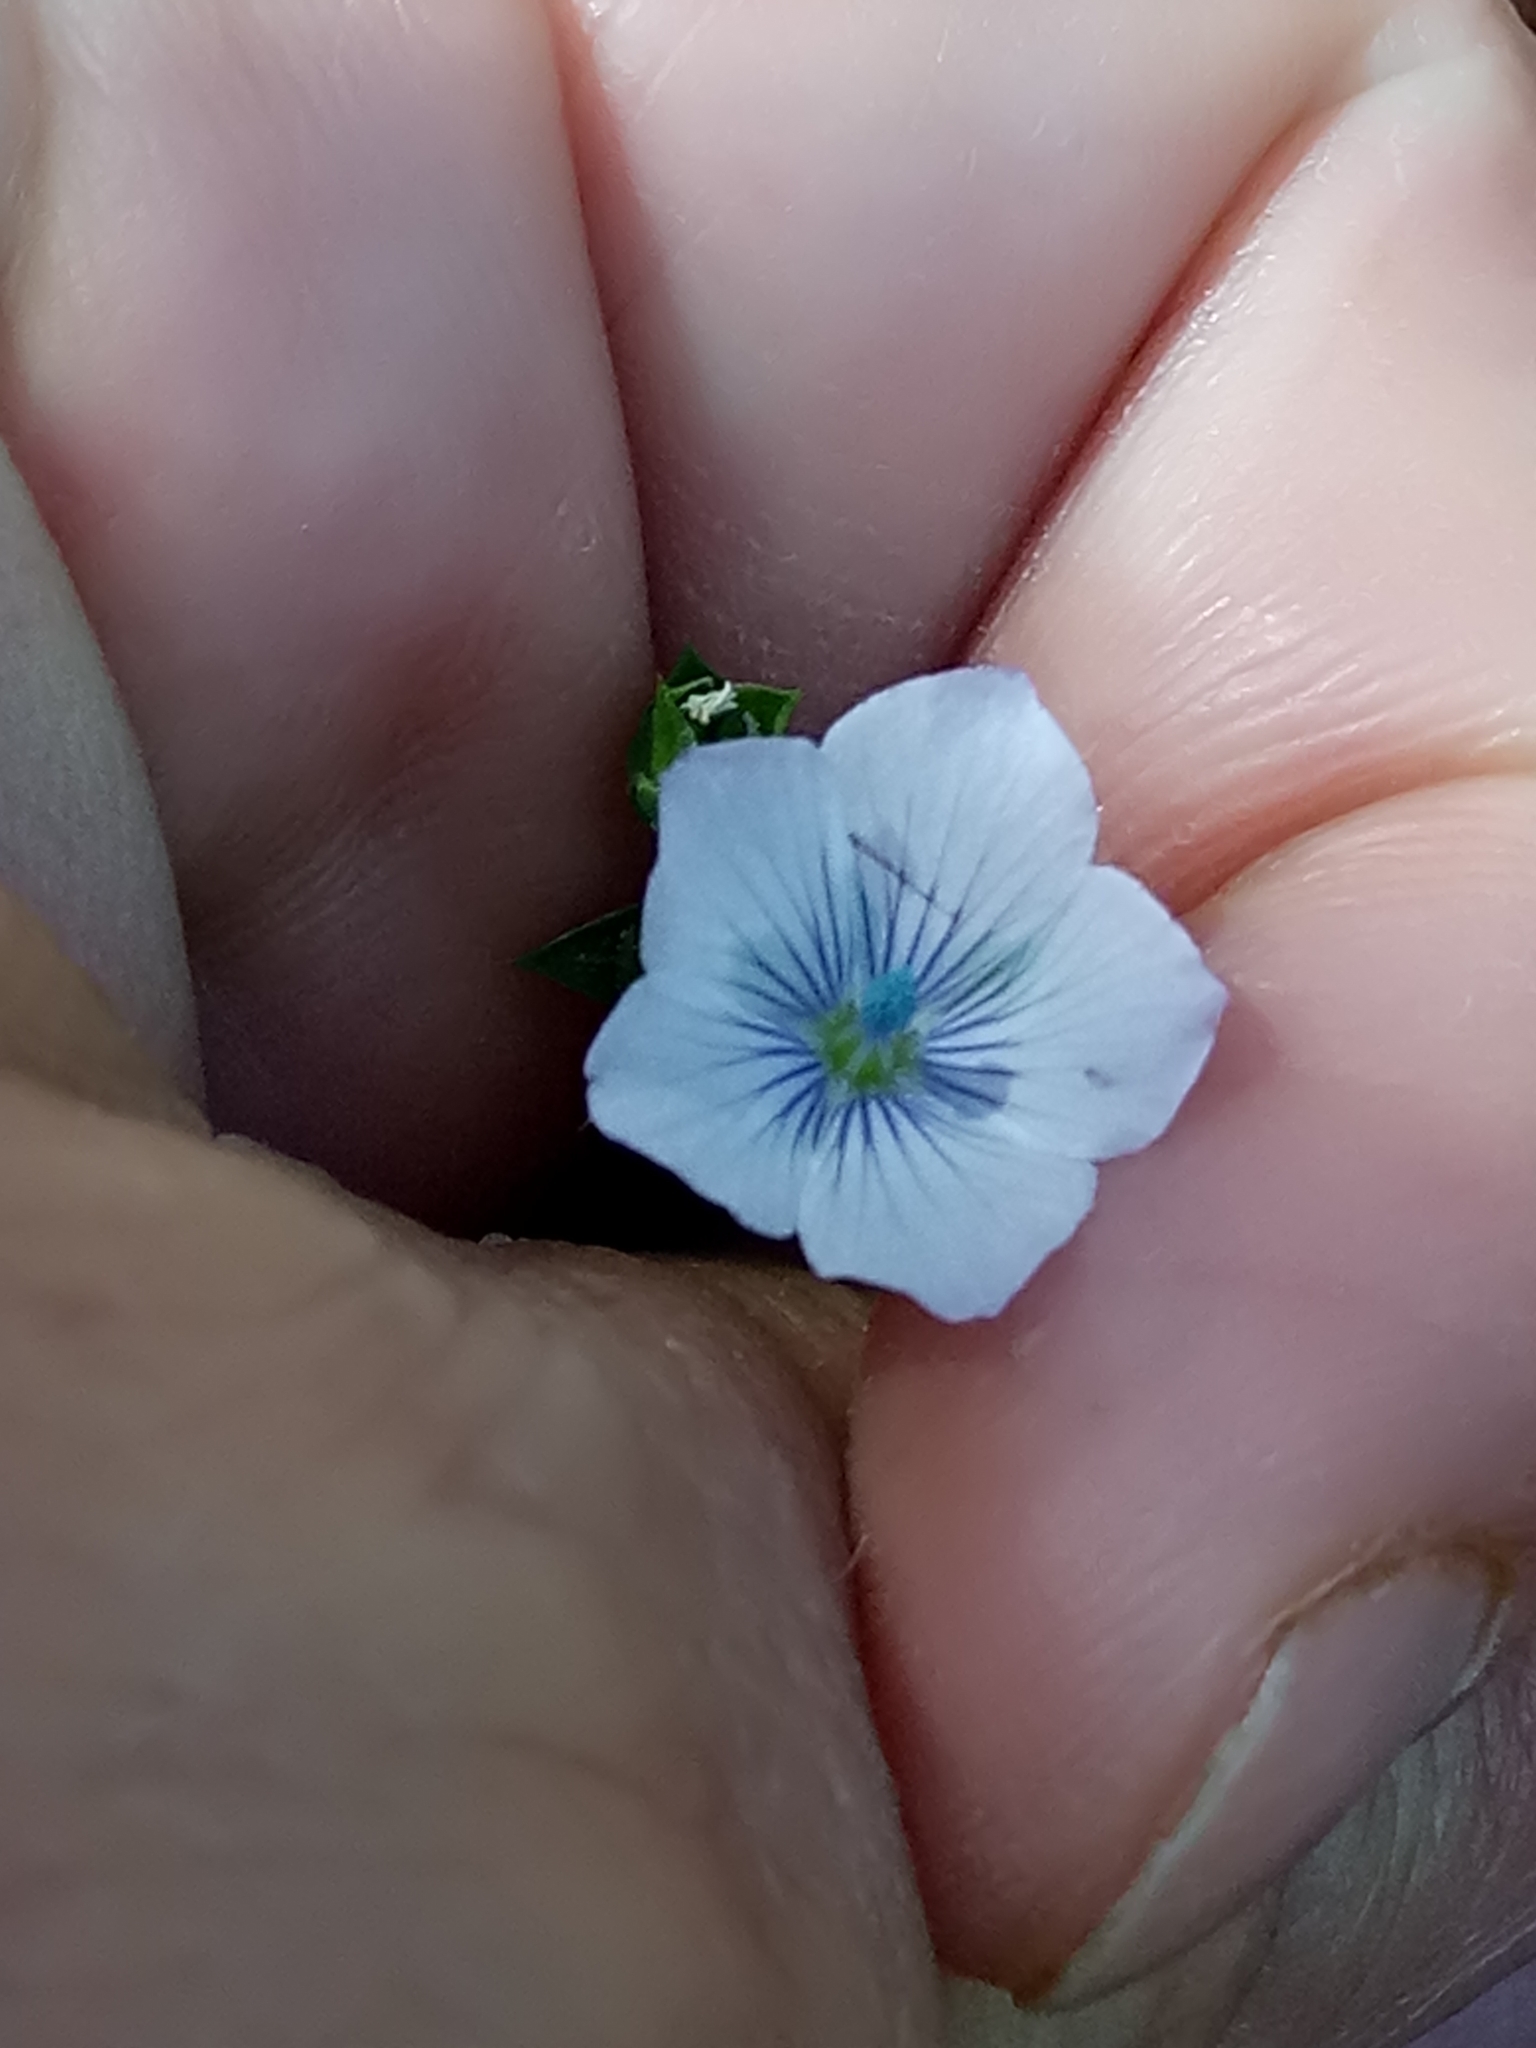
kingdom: Plantae
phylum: Tracheophyta
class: Magnoliopsida
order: Malpighiales
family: Linaceae
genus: Linum
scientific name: Linum bienne
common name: Pale flax
